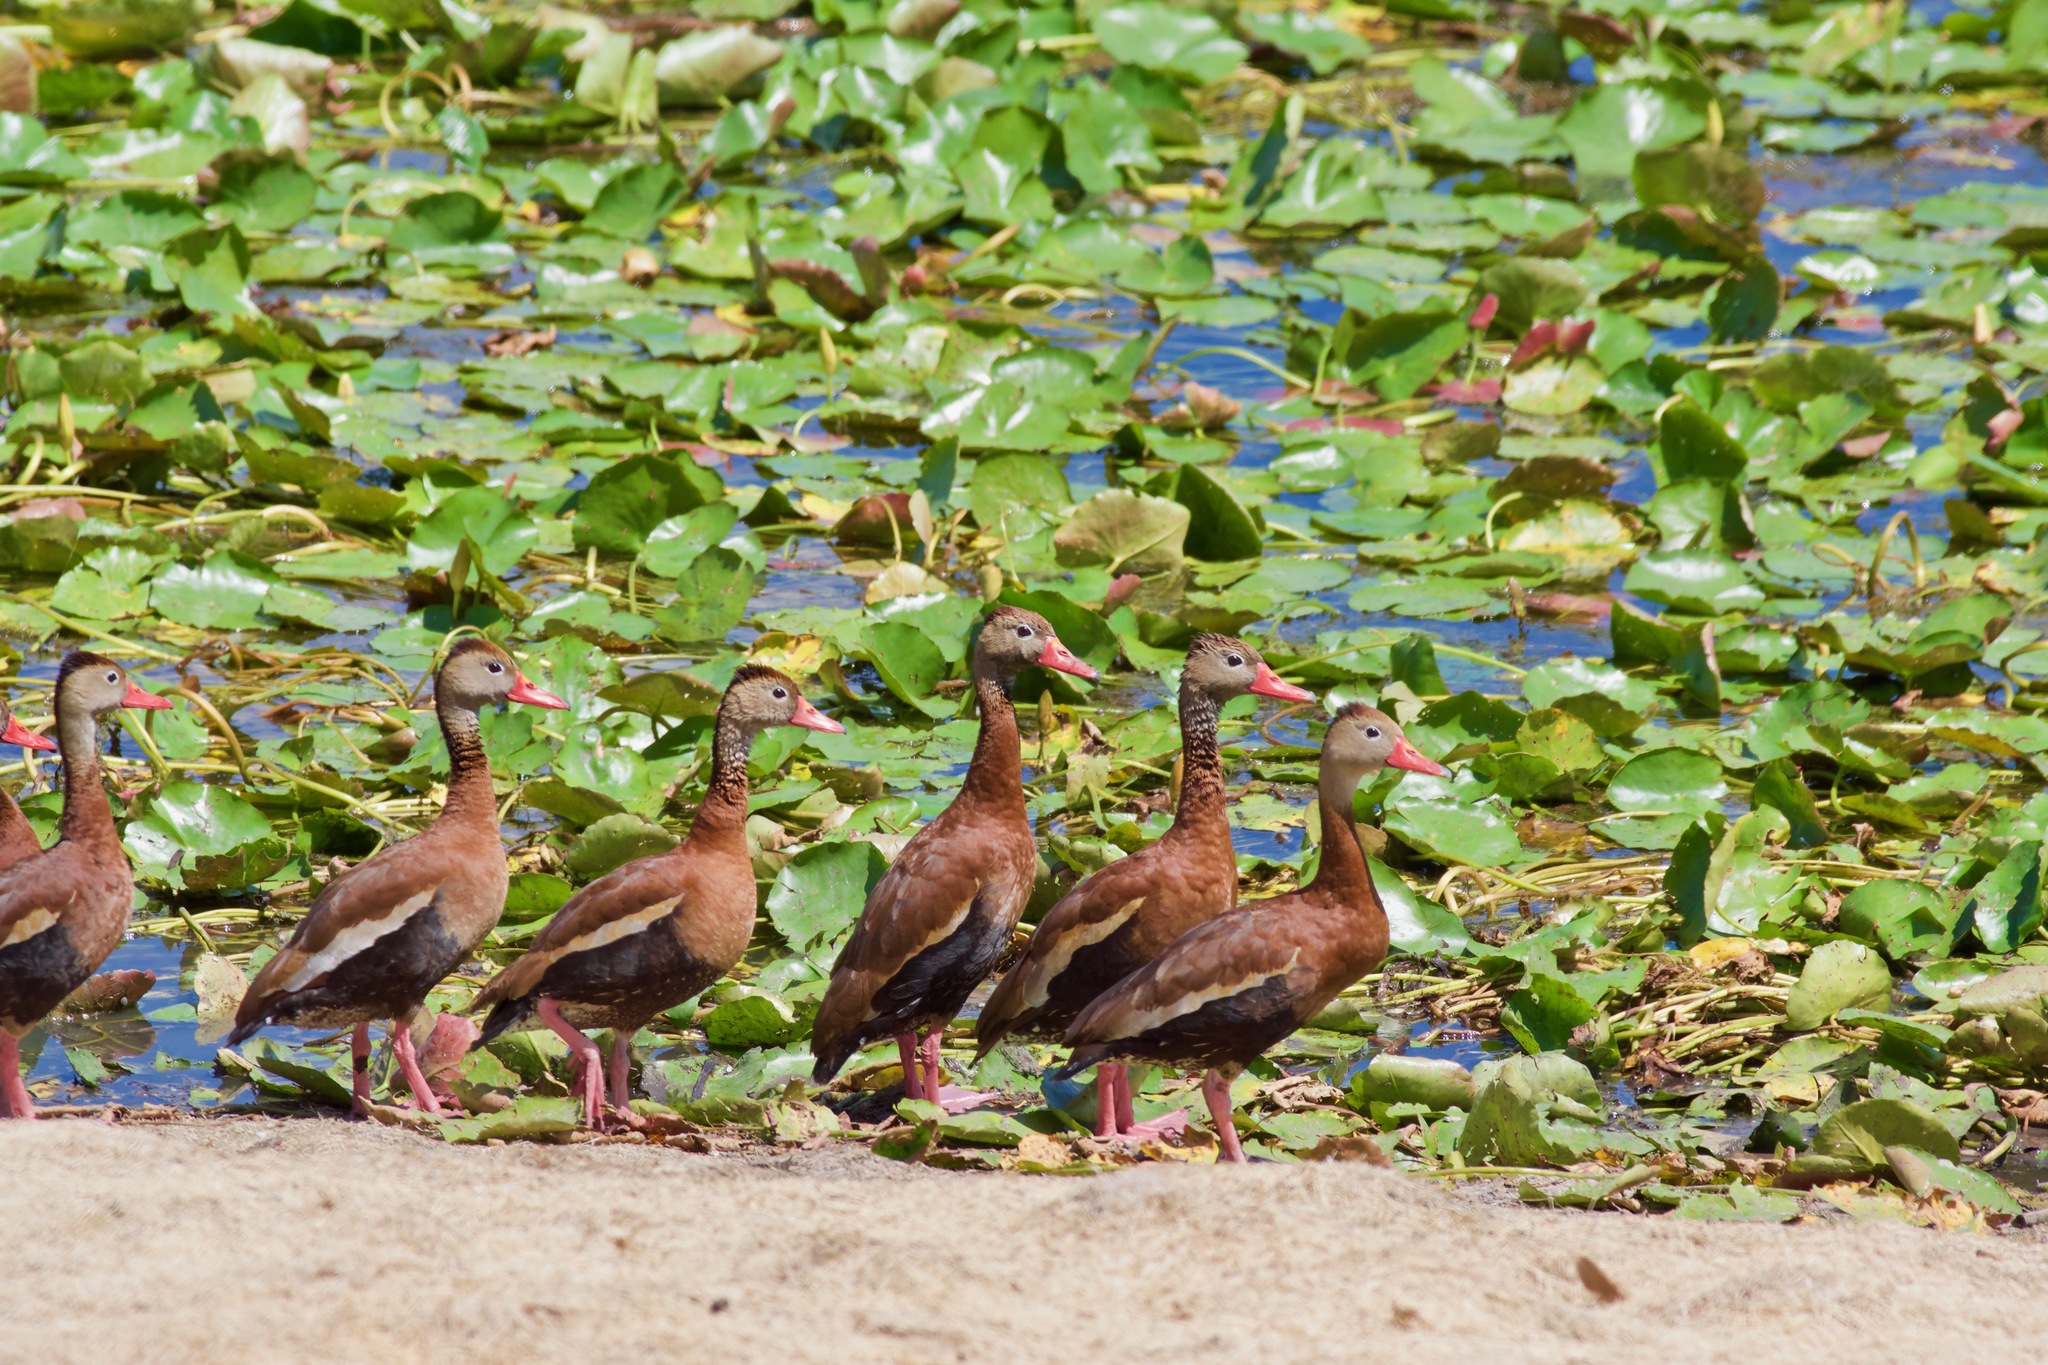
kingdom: Animalia
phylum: Chordata
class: Aves
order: Anseriformes
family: Anatidae
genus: Dendrocygna
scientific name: Dendrocygna autumnalis
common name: Black-bellied whistling duck
